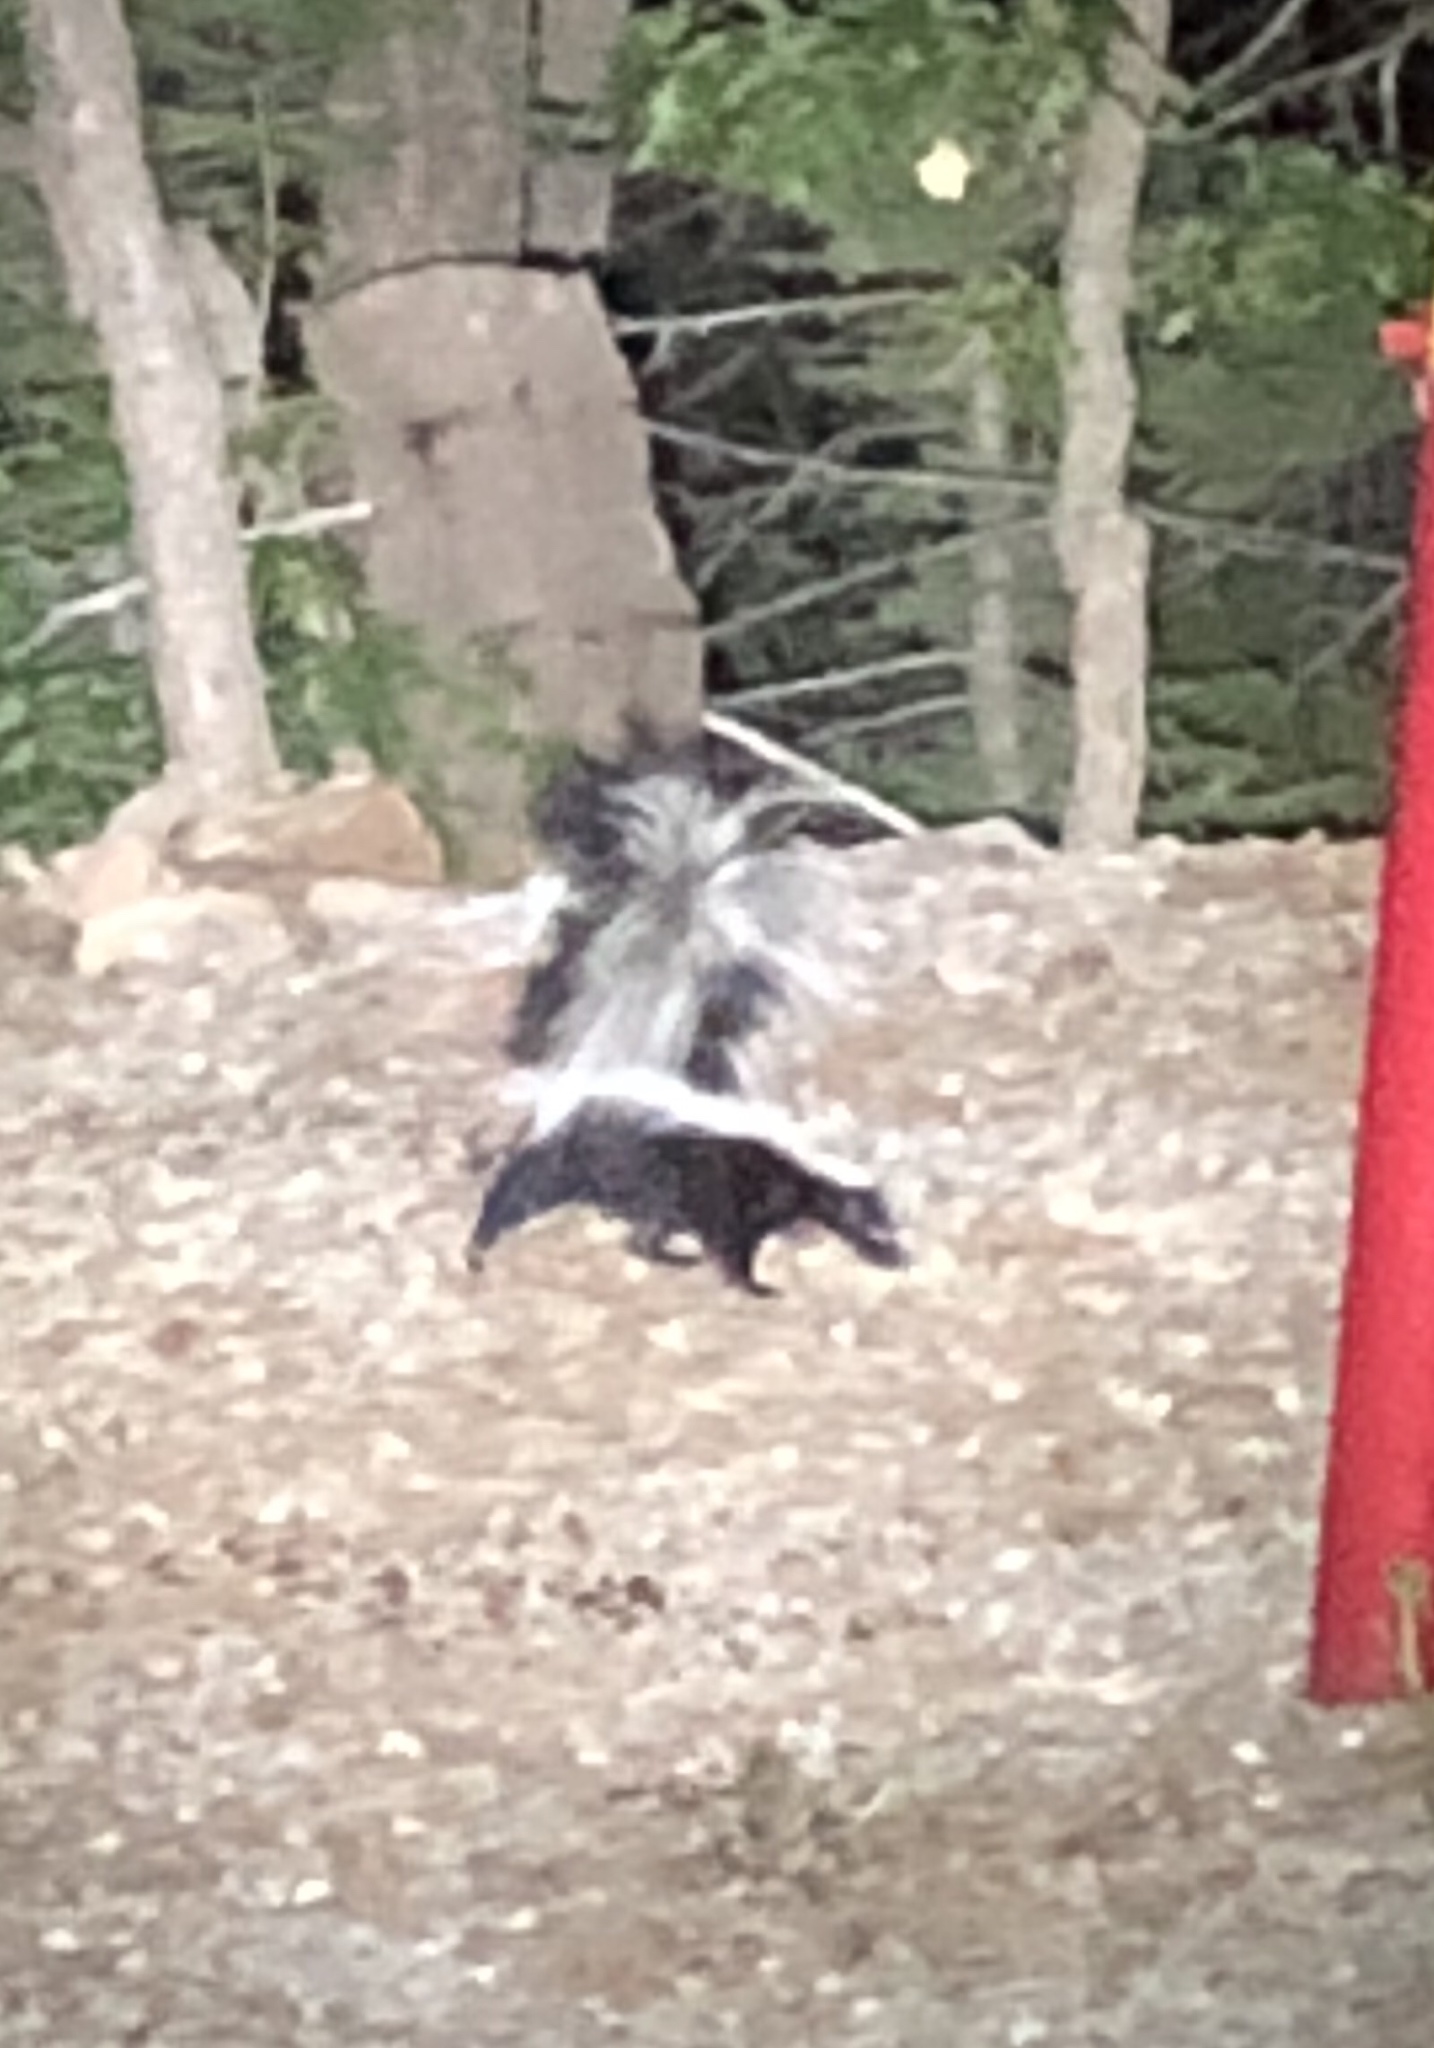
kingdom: Animalia
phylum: Chordata
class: Mammalia
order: Carnivora
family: Mephitidae
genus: Mephitis
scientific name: Mephitis mephitis
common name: Striped skunk
